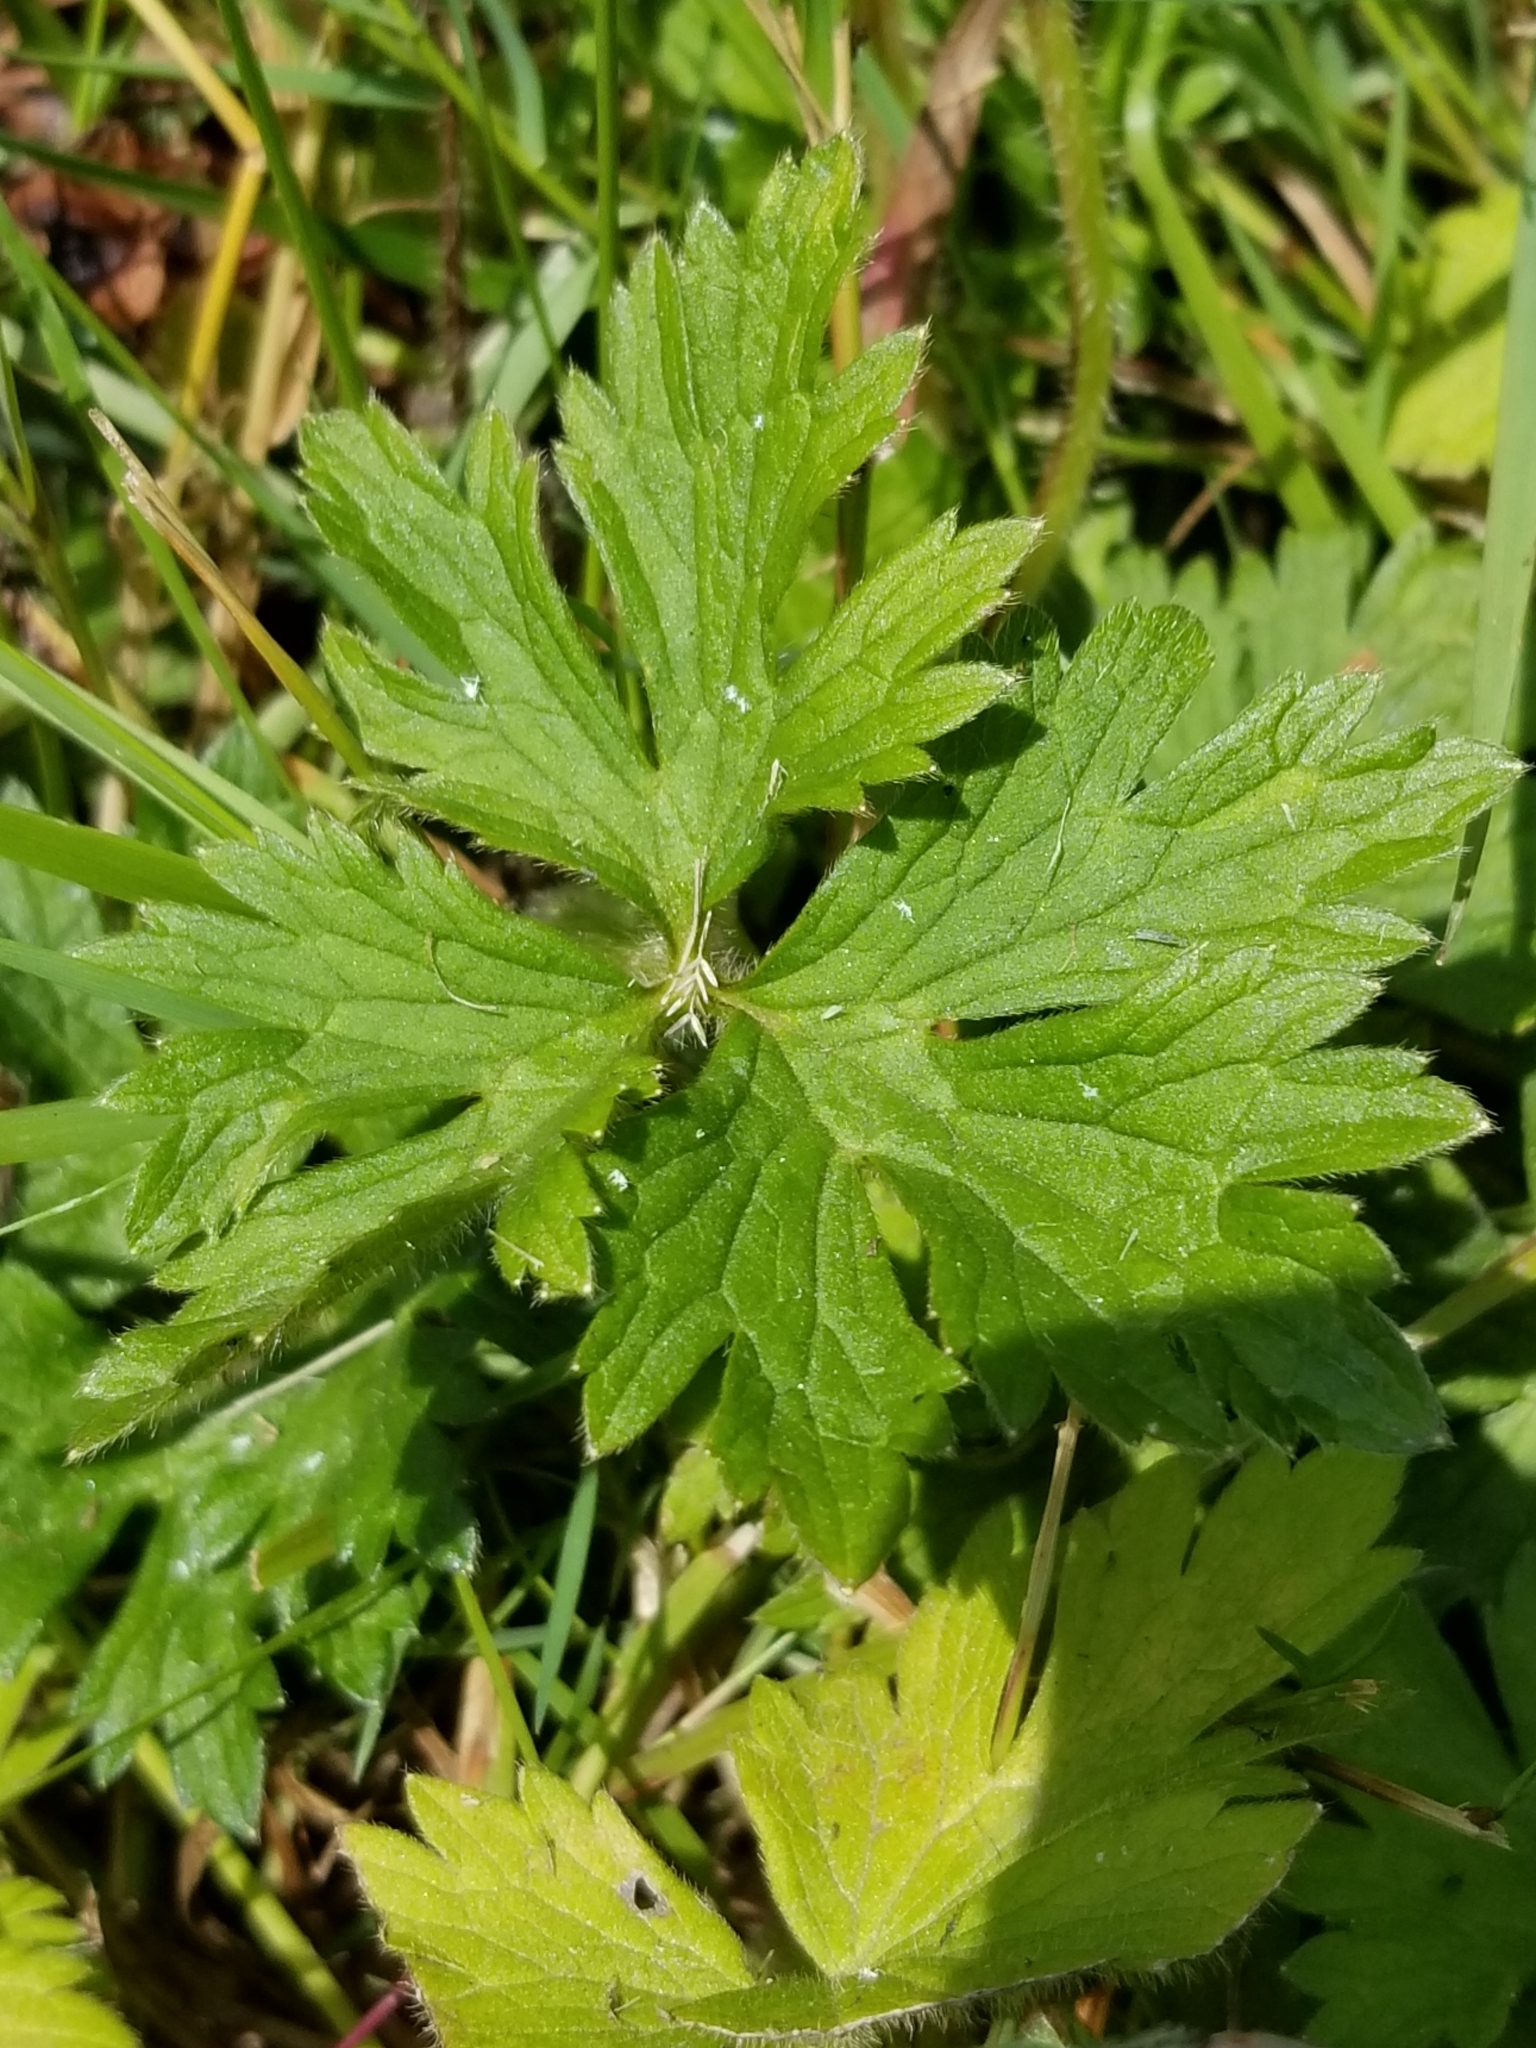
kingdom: Plantae
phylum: Tracheophyta
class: Magnoliopsida
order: Ranunculales
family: Ranunculaceae
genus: Ranunculus
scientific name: Ranunculus repens
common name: Creeping buttercup
